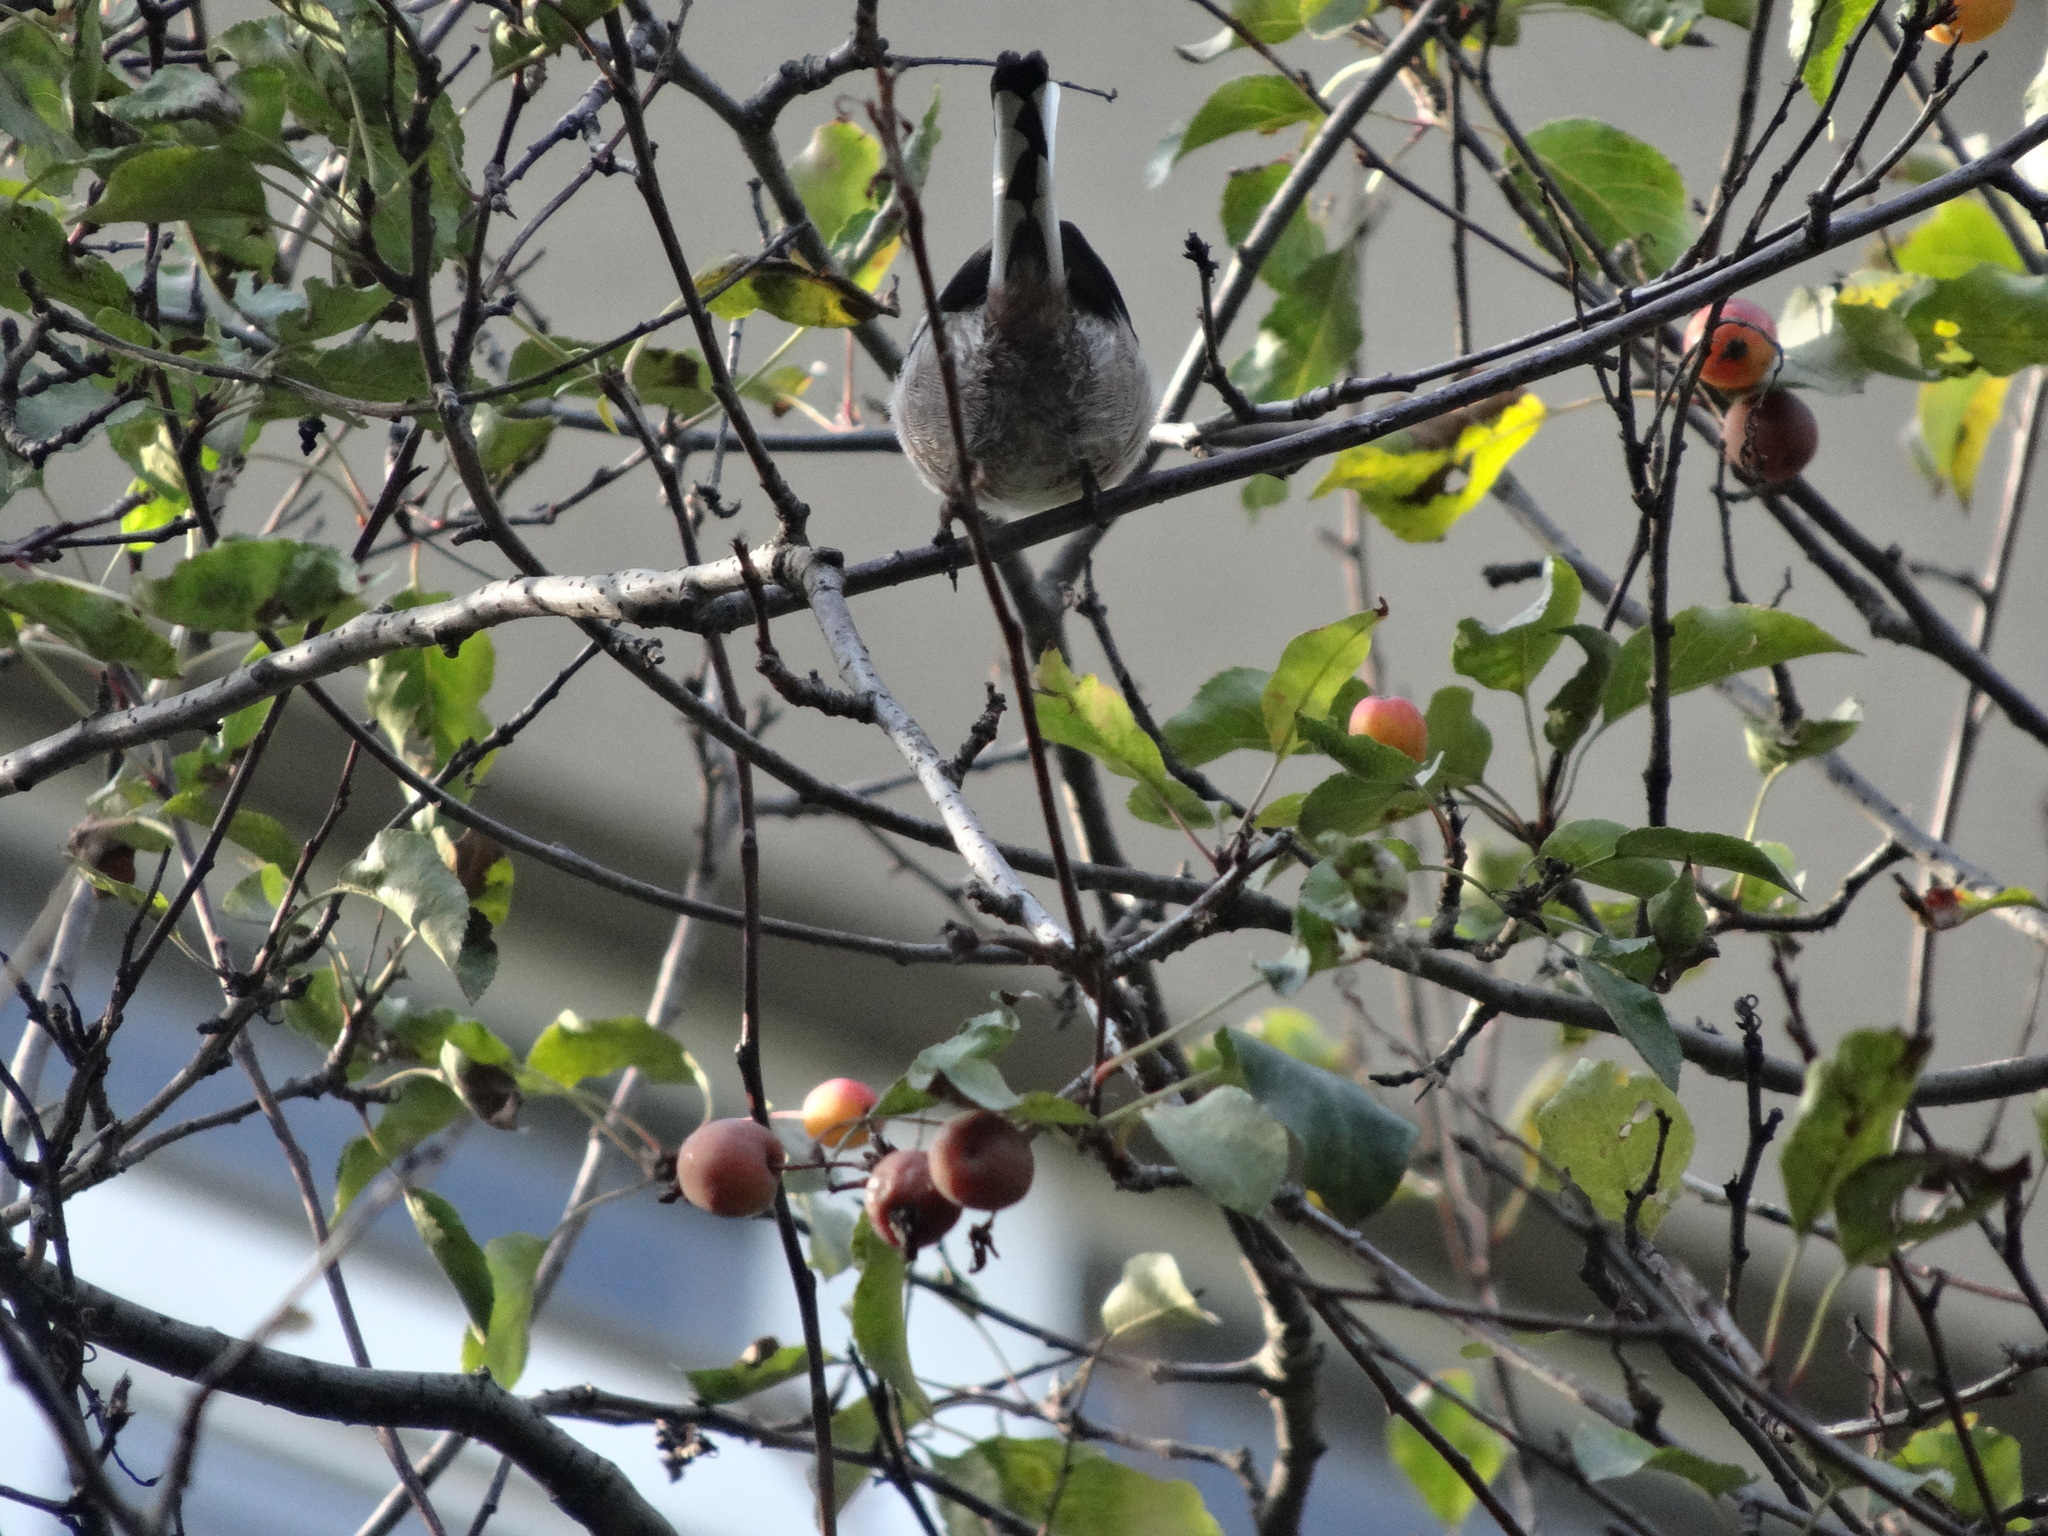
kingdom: Animalia
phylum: Chordata
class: Aves
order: Passeriformes
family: Aegithalidae
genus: Aegithalos
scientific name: Aegithalos caudatus
